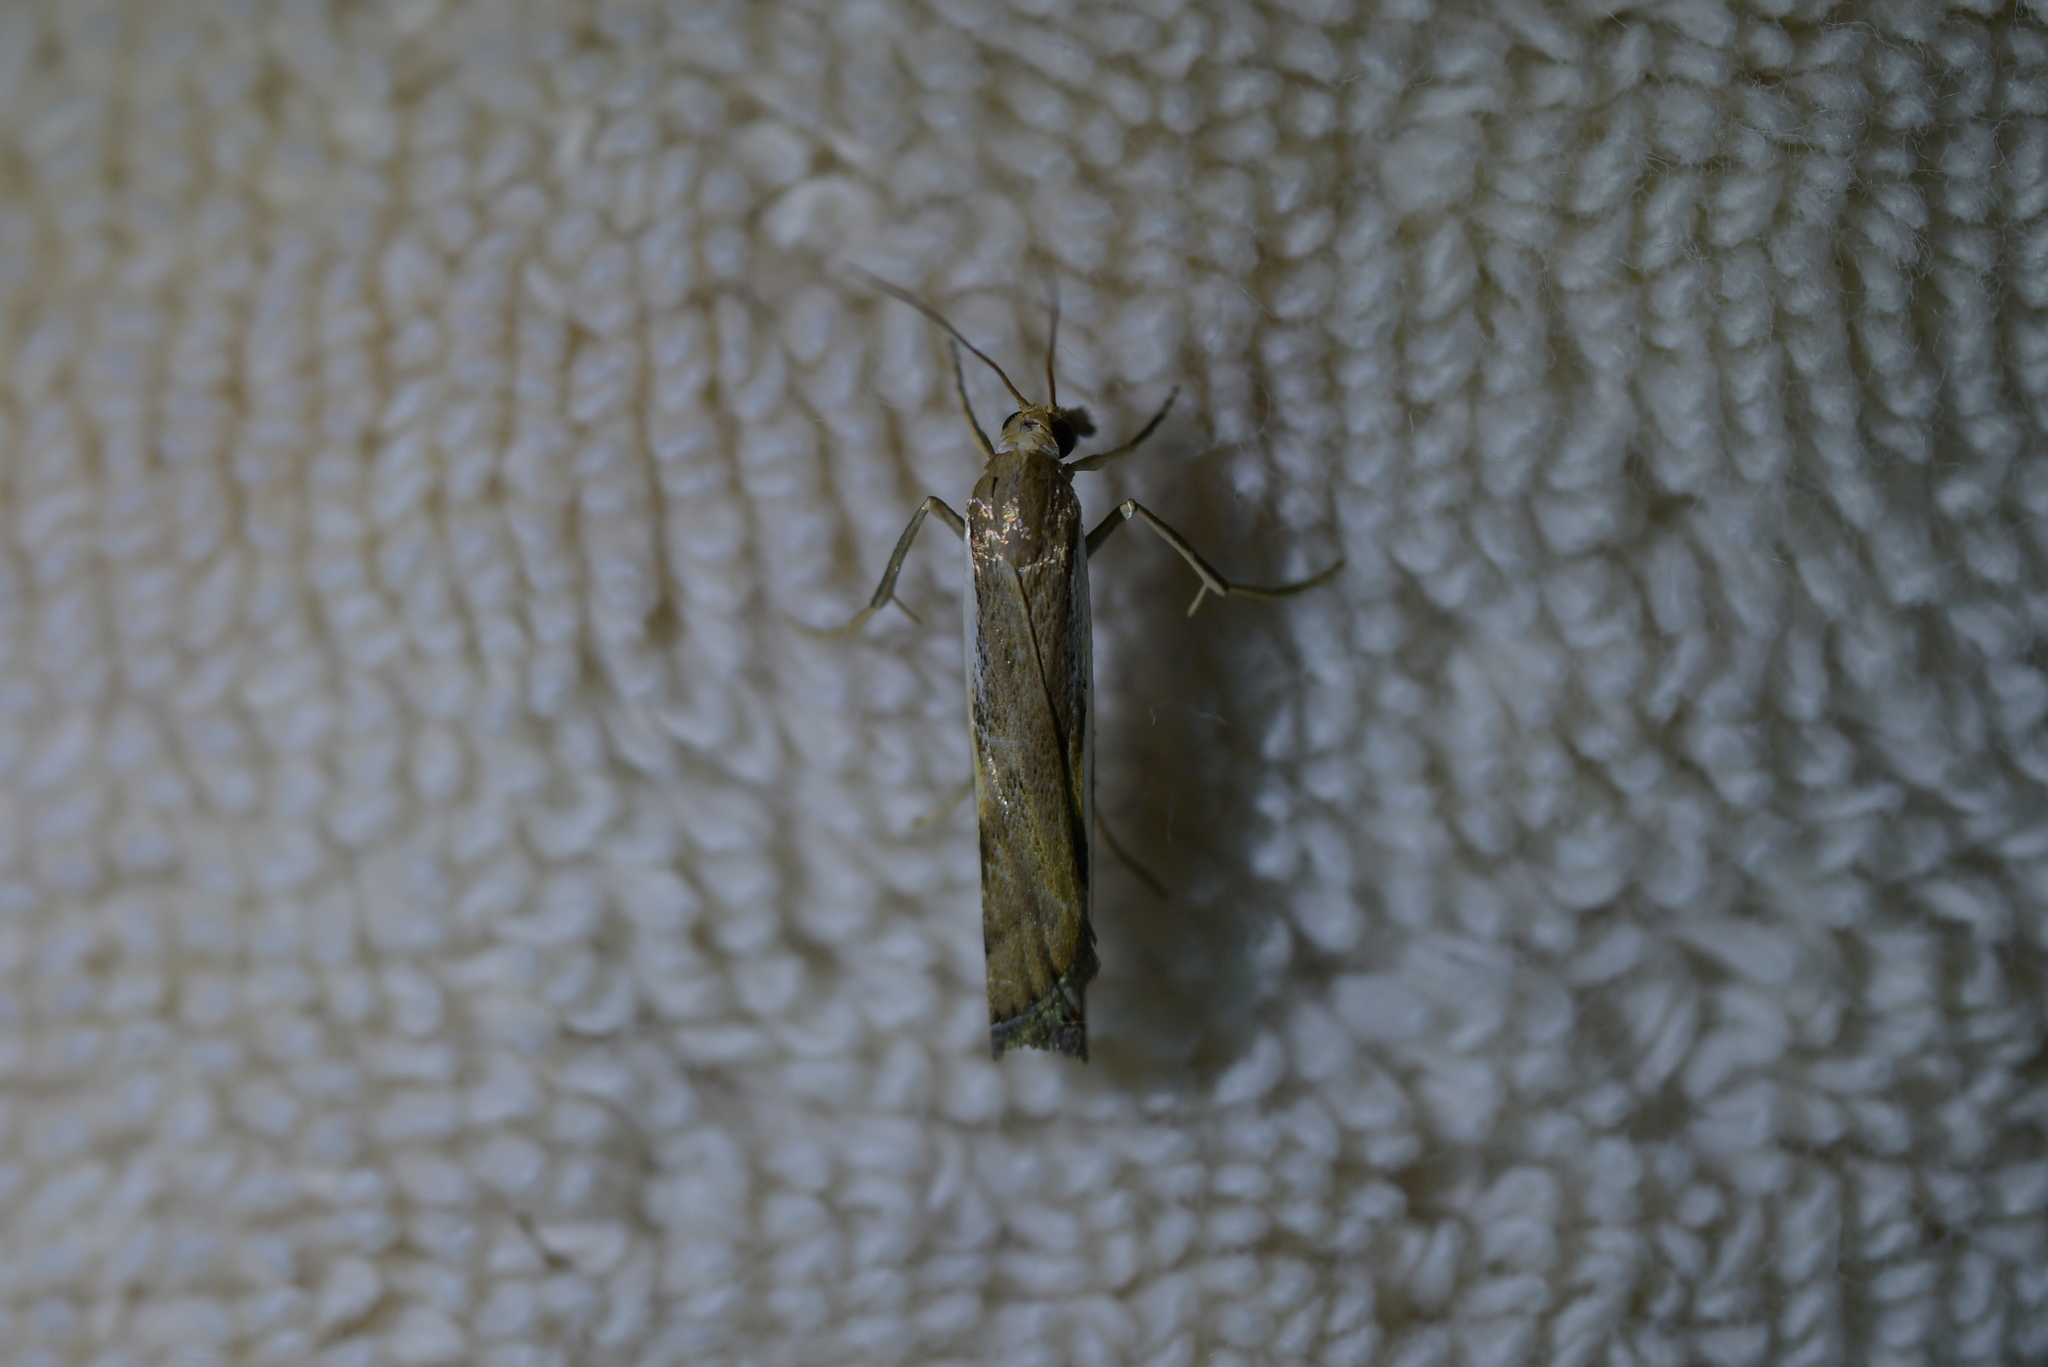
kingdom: Animalia
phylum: Arthropoda
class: Insecta
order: Lepidoptera
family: Crambidae
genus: Orocrambus
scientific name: Orocrambus flexuosellus
